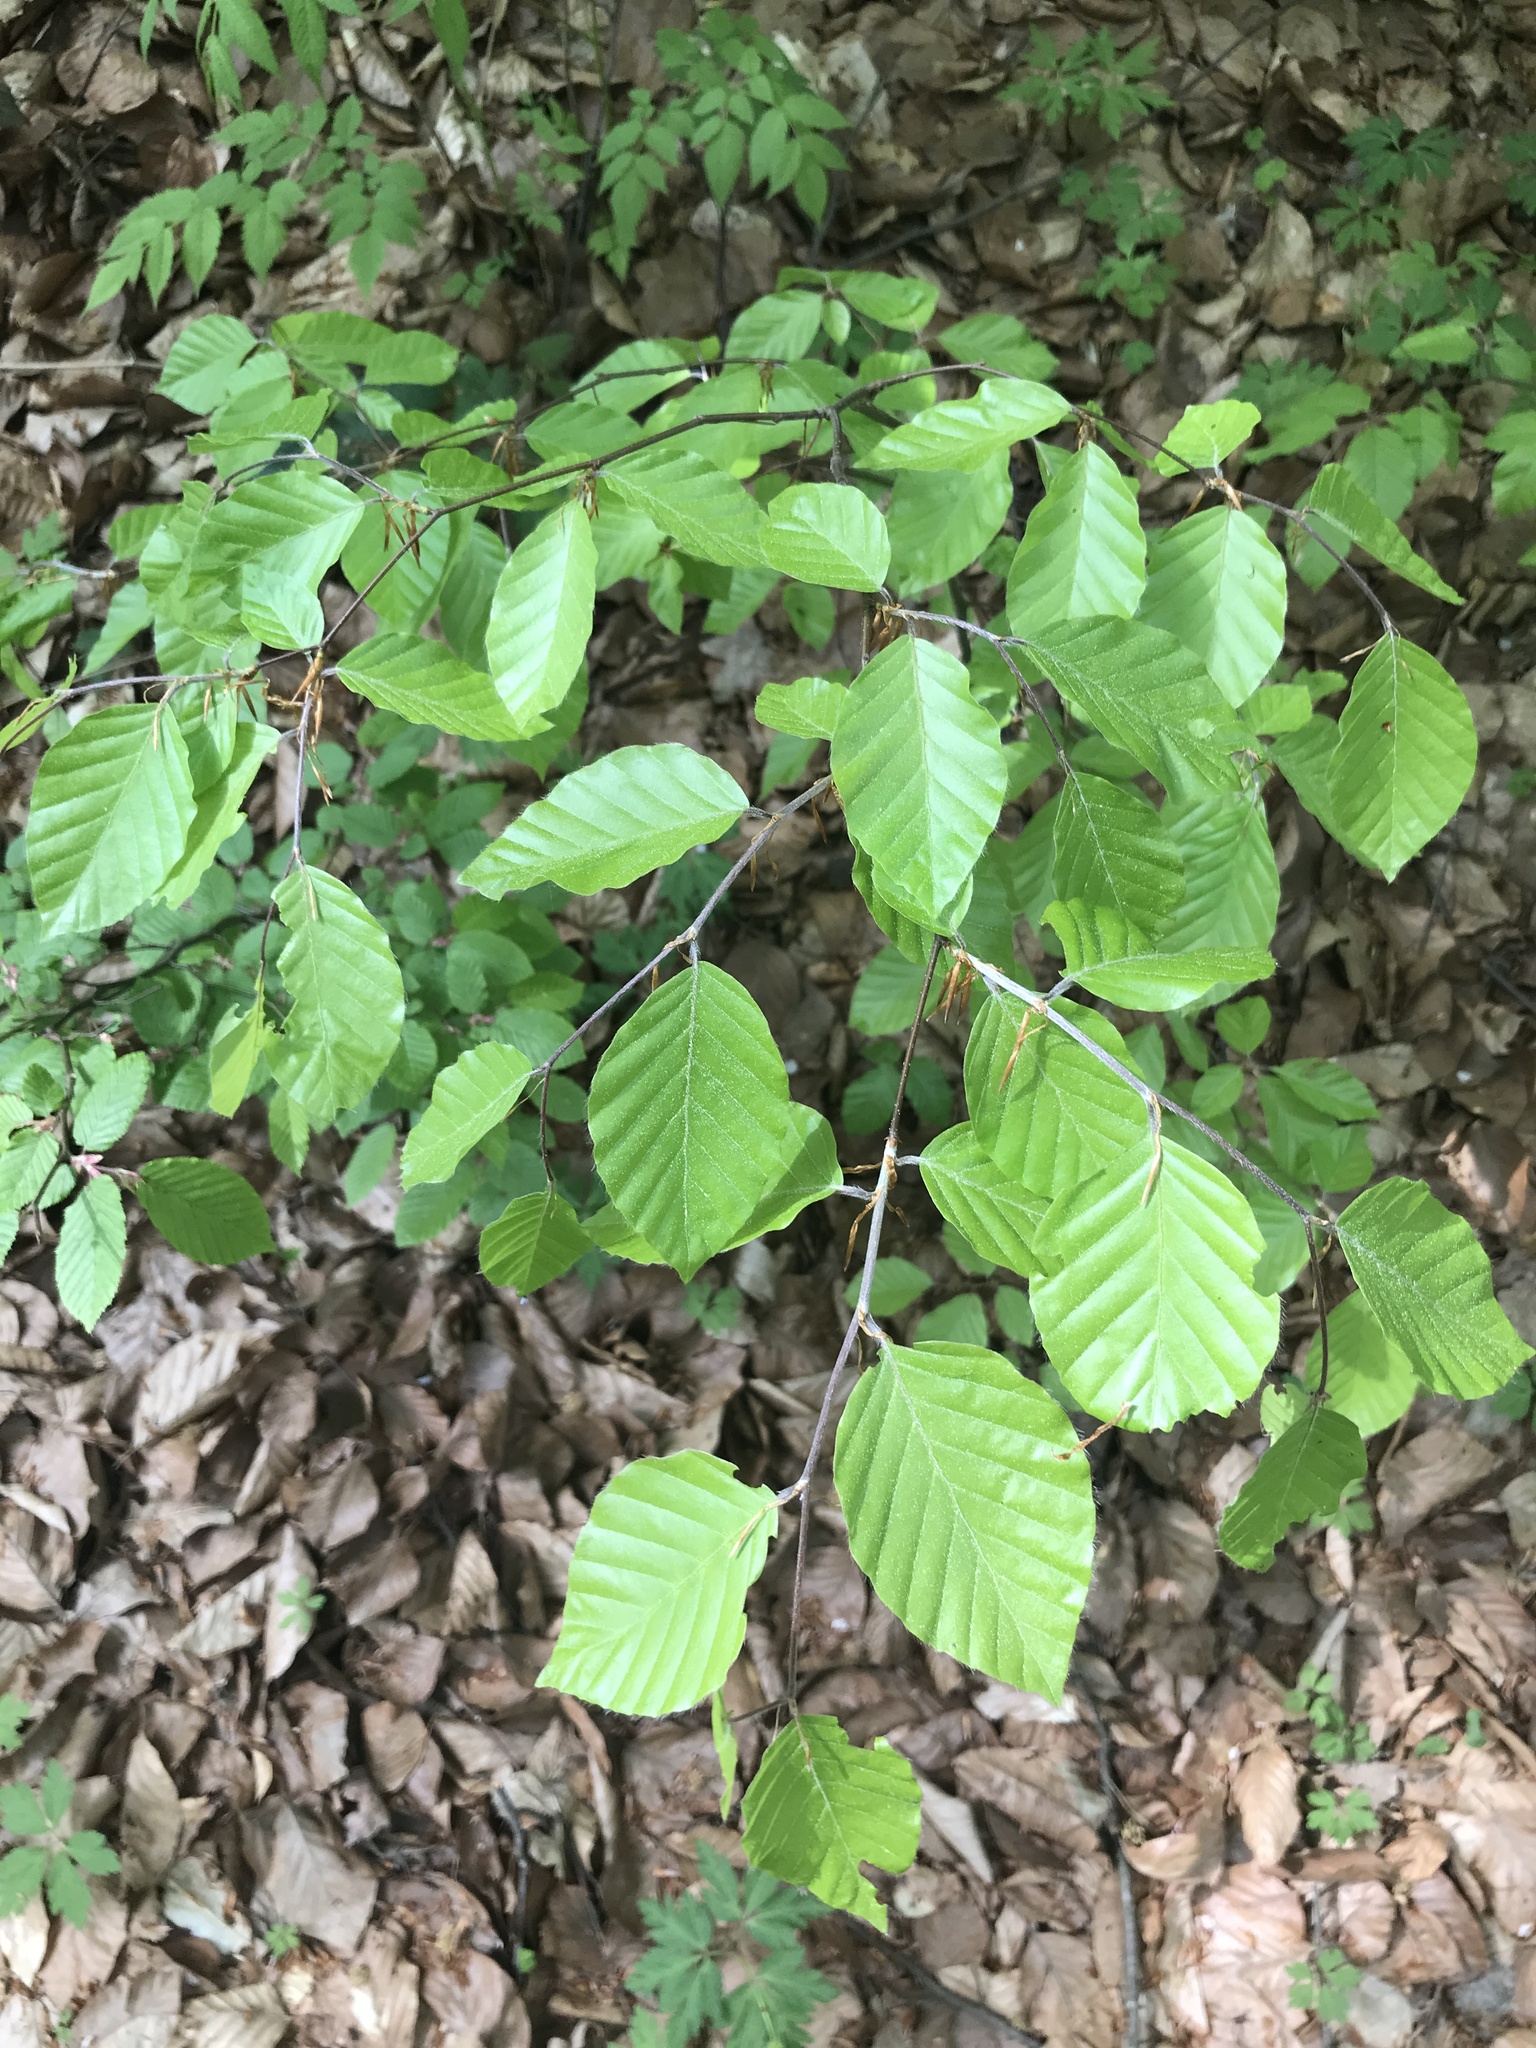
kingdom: Plantae
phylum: Tracheophyta
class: Magnoliopsida
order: Fagales
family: Fagaceae
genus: Fagus
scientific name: Fagus sylvatica
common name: Beech
